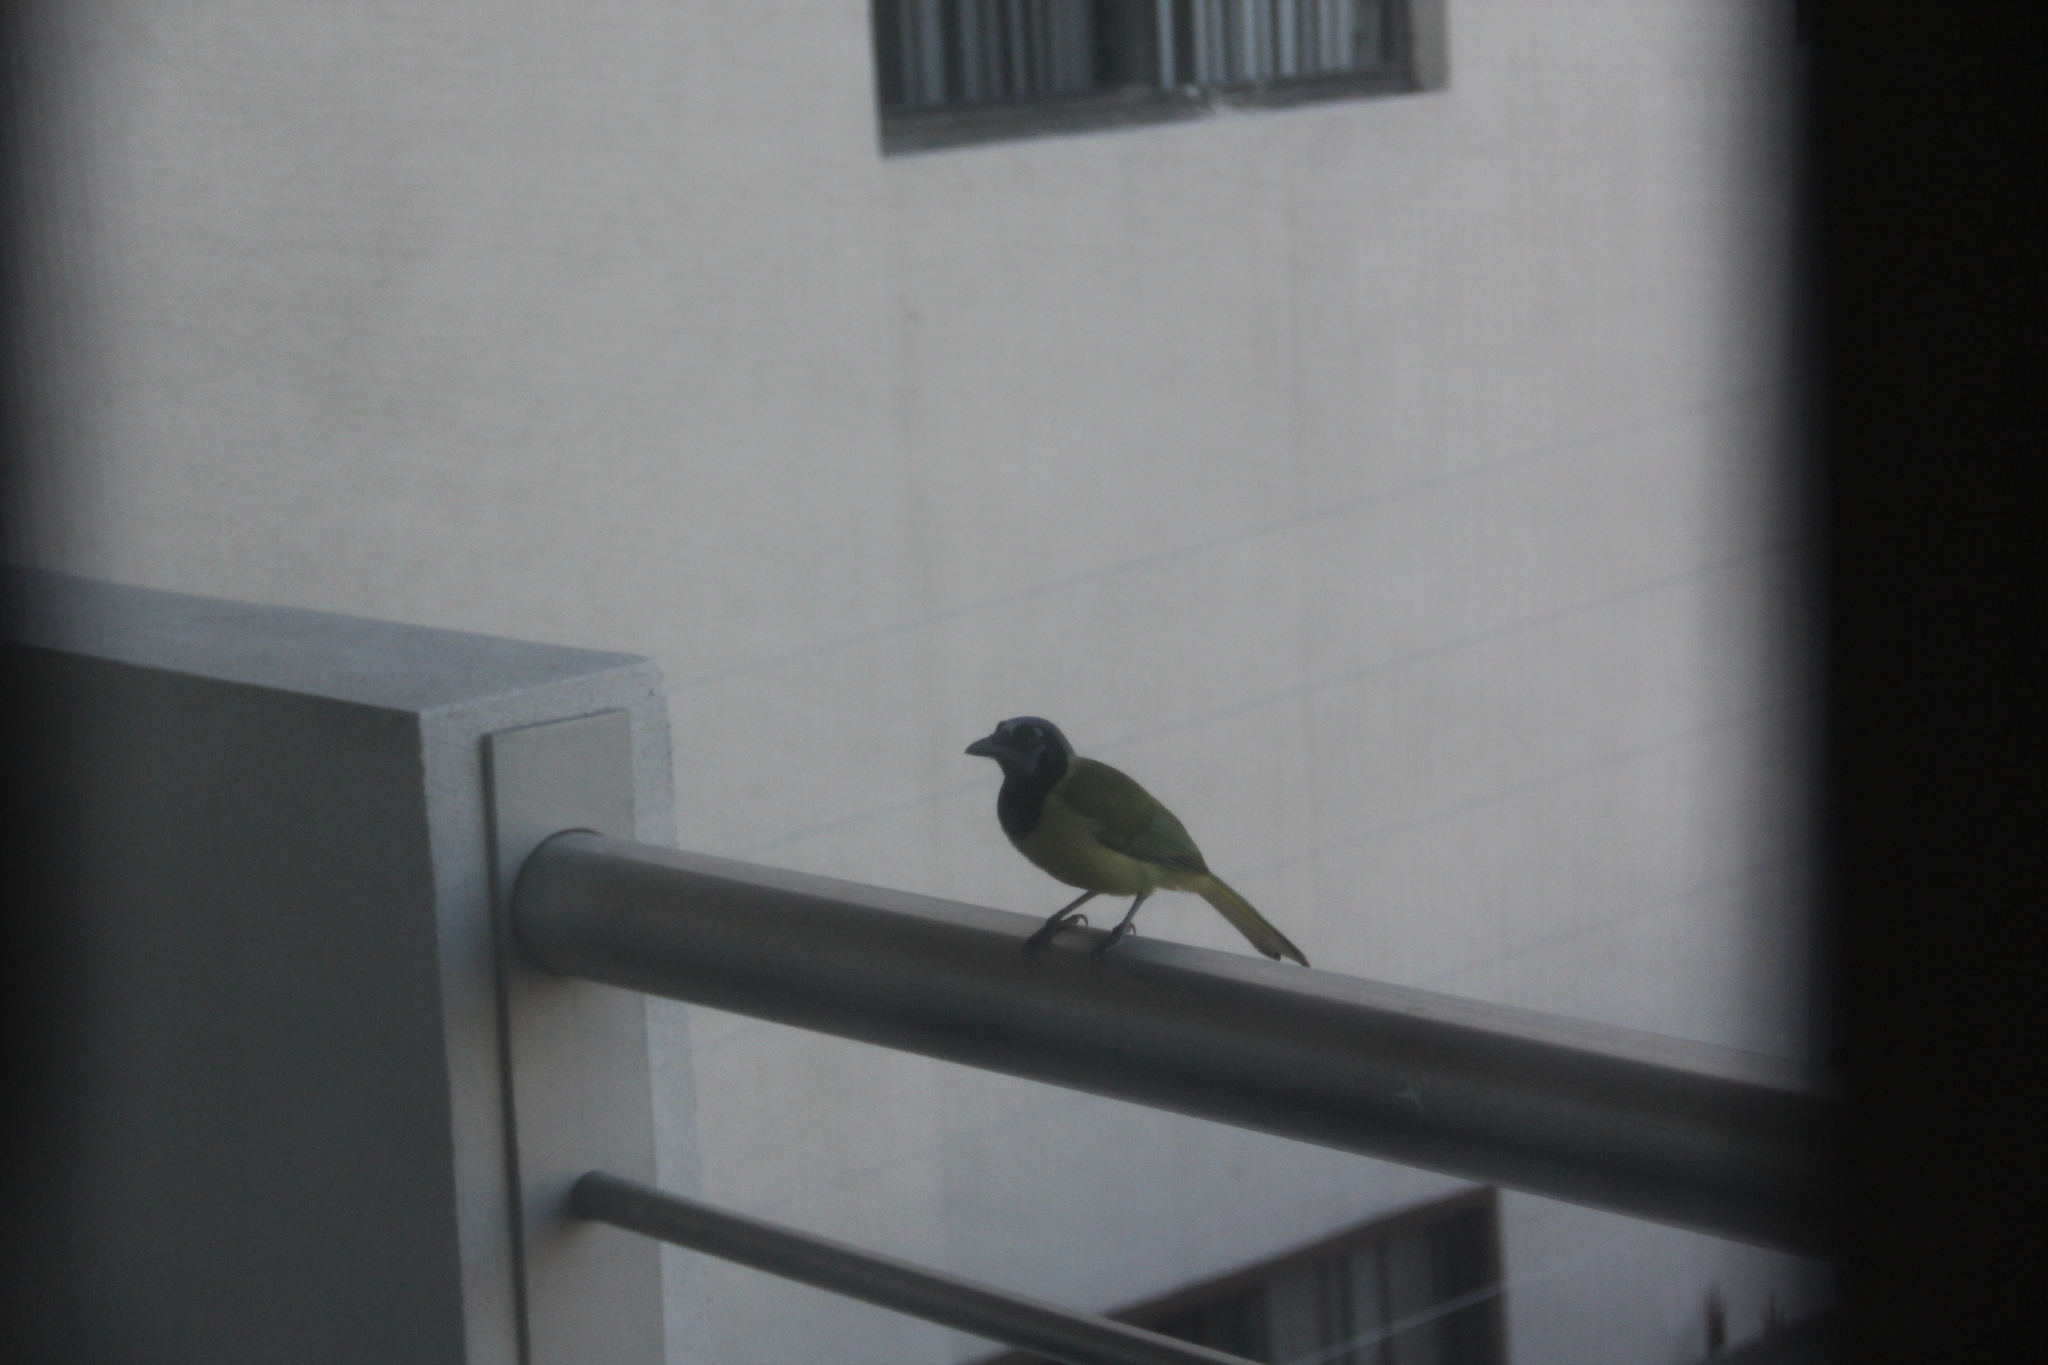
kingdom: Animalia
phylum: Chordata
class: Aves
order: Passeriformes
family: Corvidae
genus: Cyanocorax
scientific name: Cyanocorax yncas
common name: Green jay
